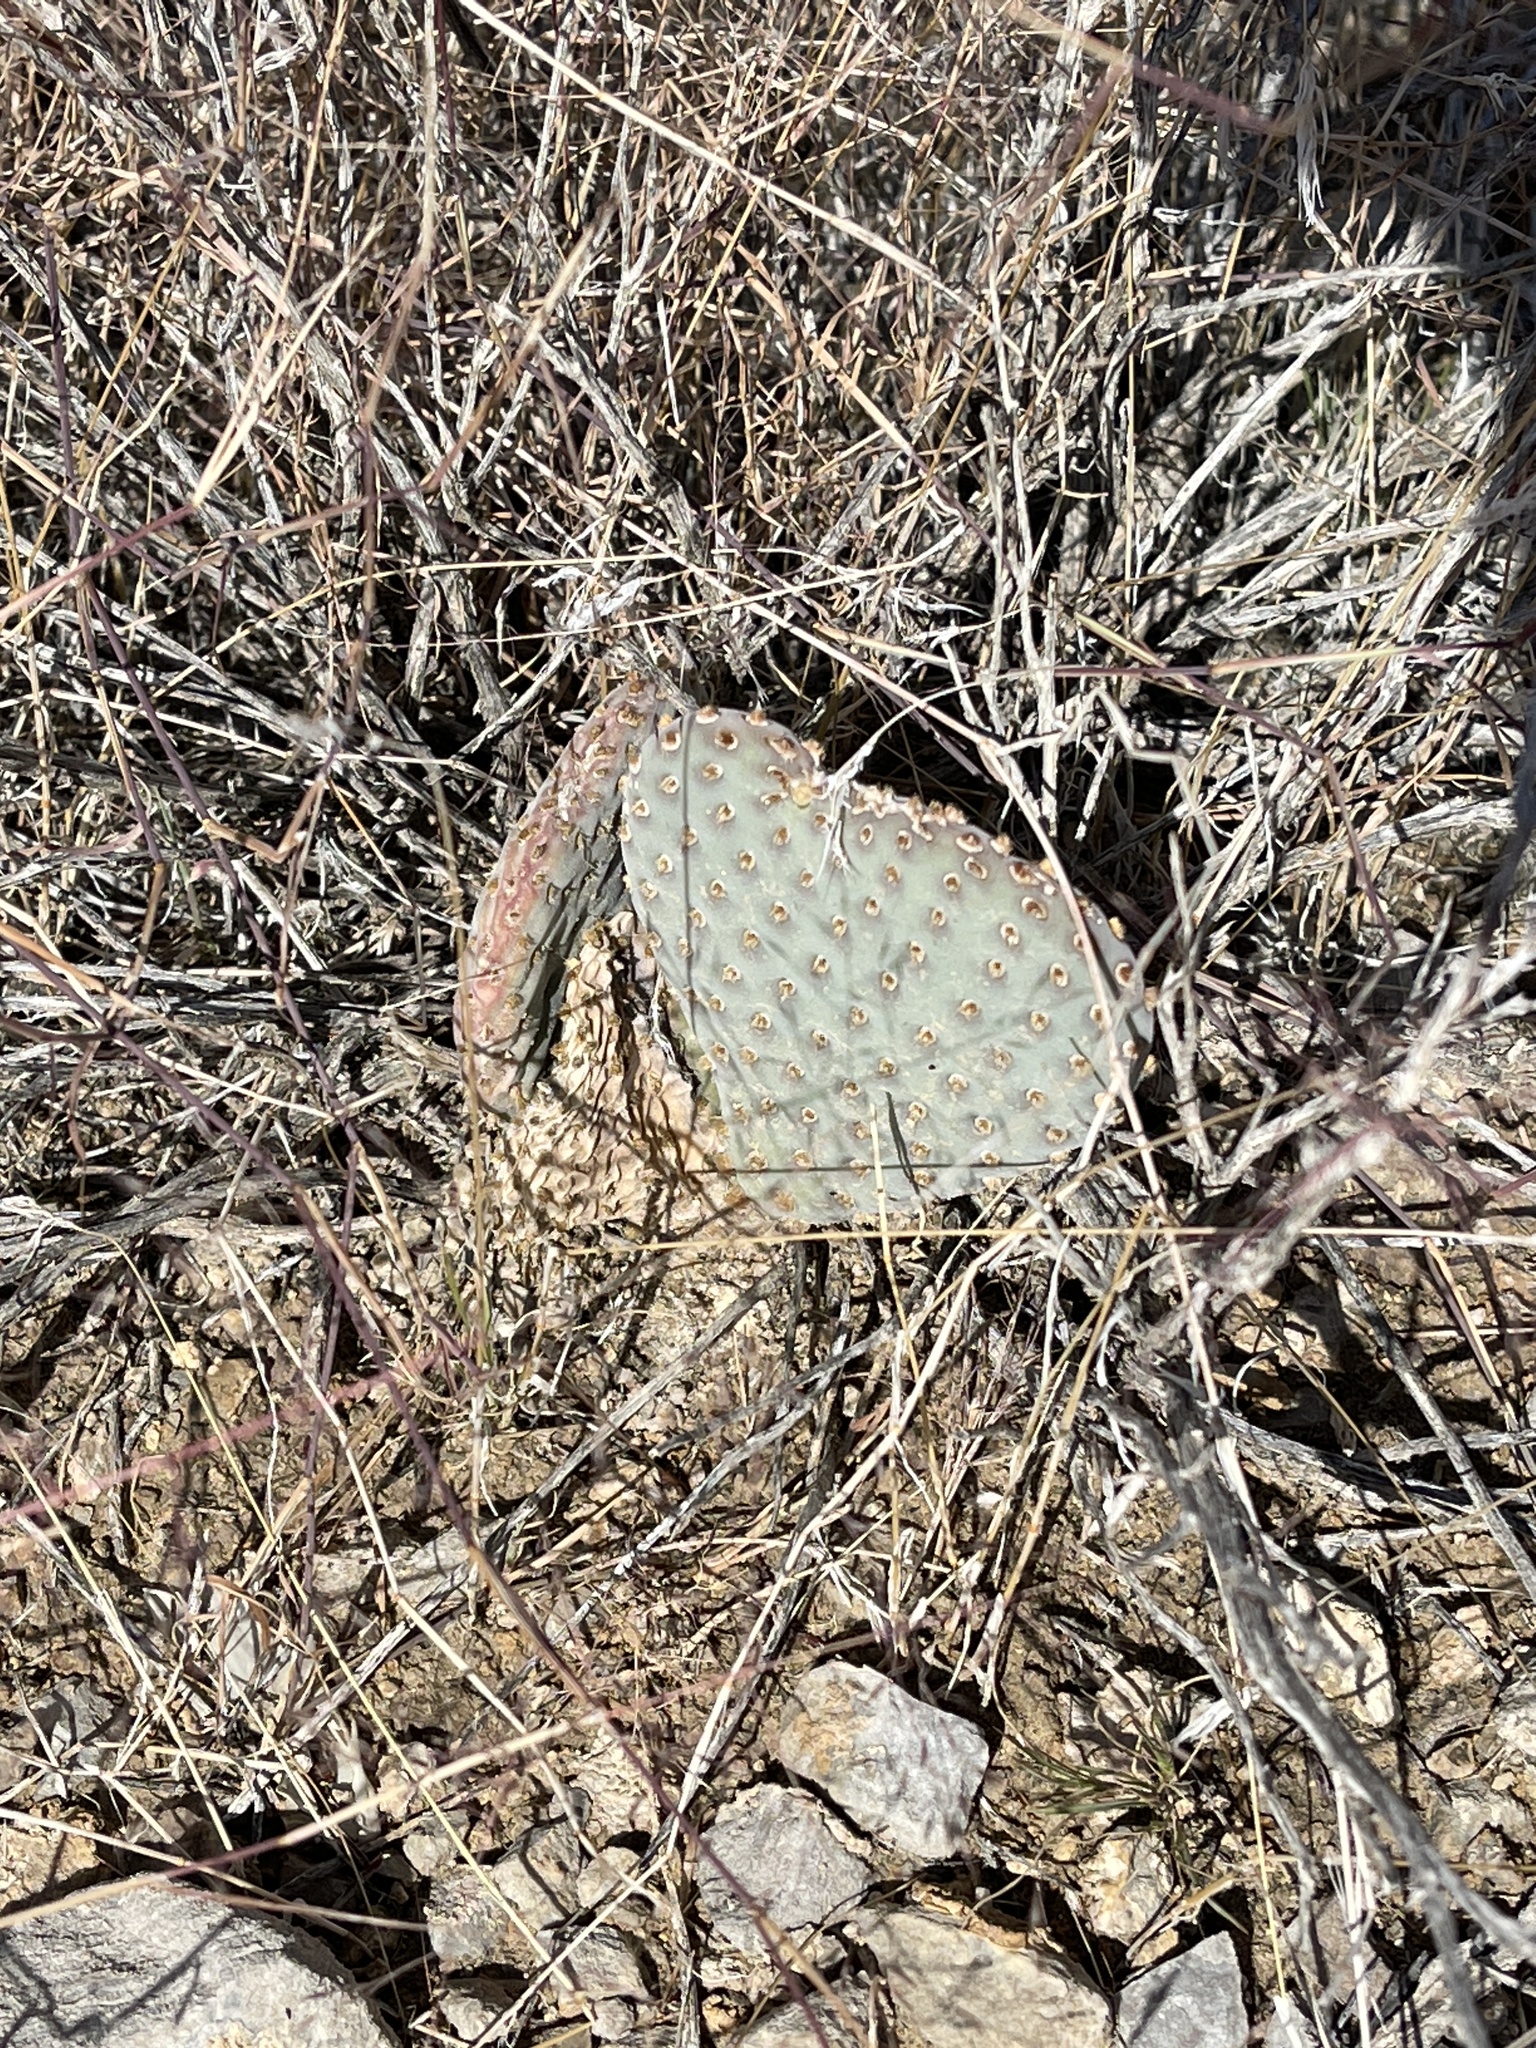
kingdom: Plantae
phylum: Tracheophyta
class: Magnoliopsida
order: Caryophyllales
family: Cactaceae
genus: Opuntia
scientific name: Opuntia basilaris
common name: Beavertail prickly-pear
